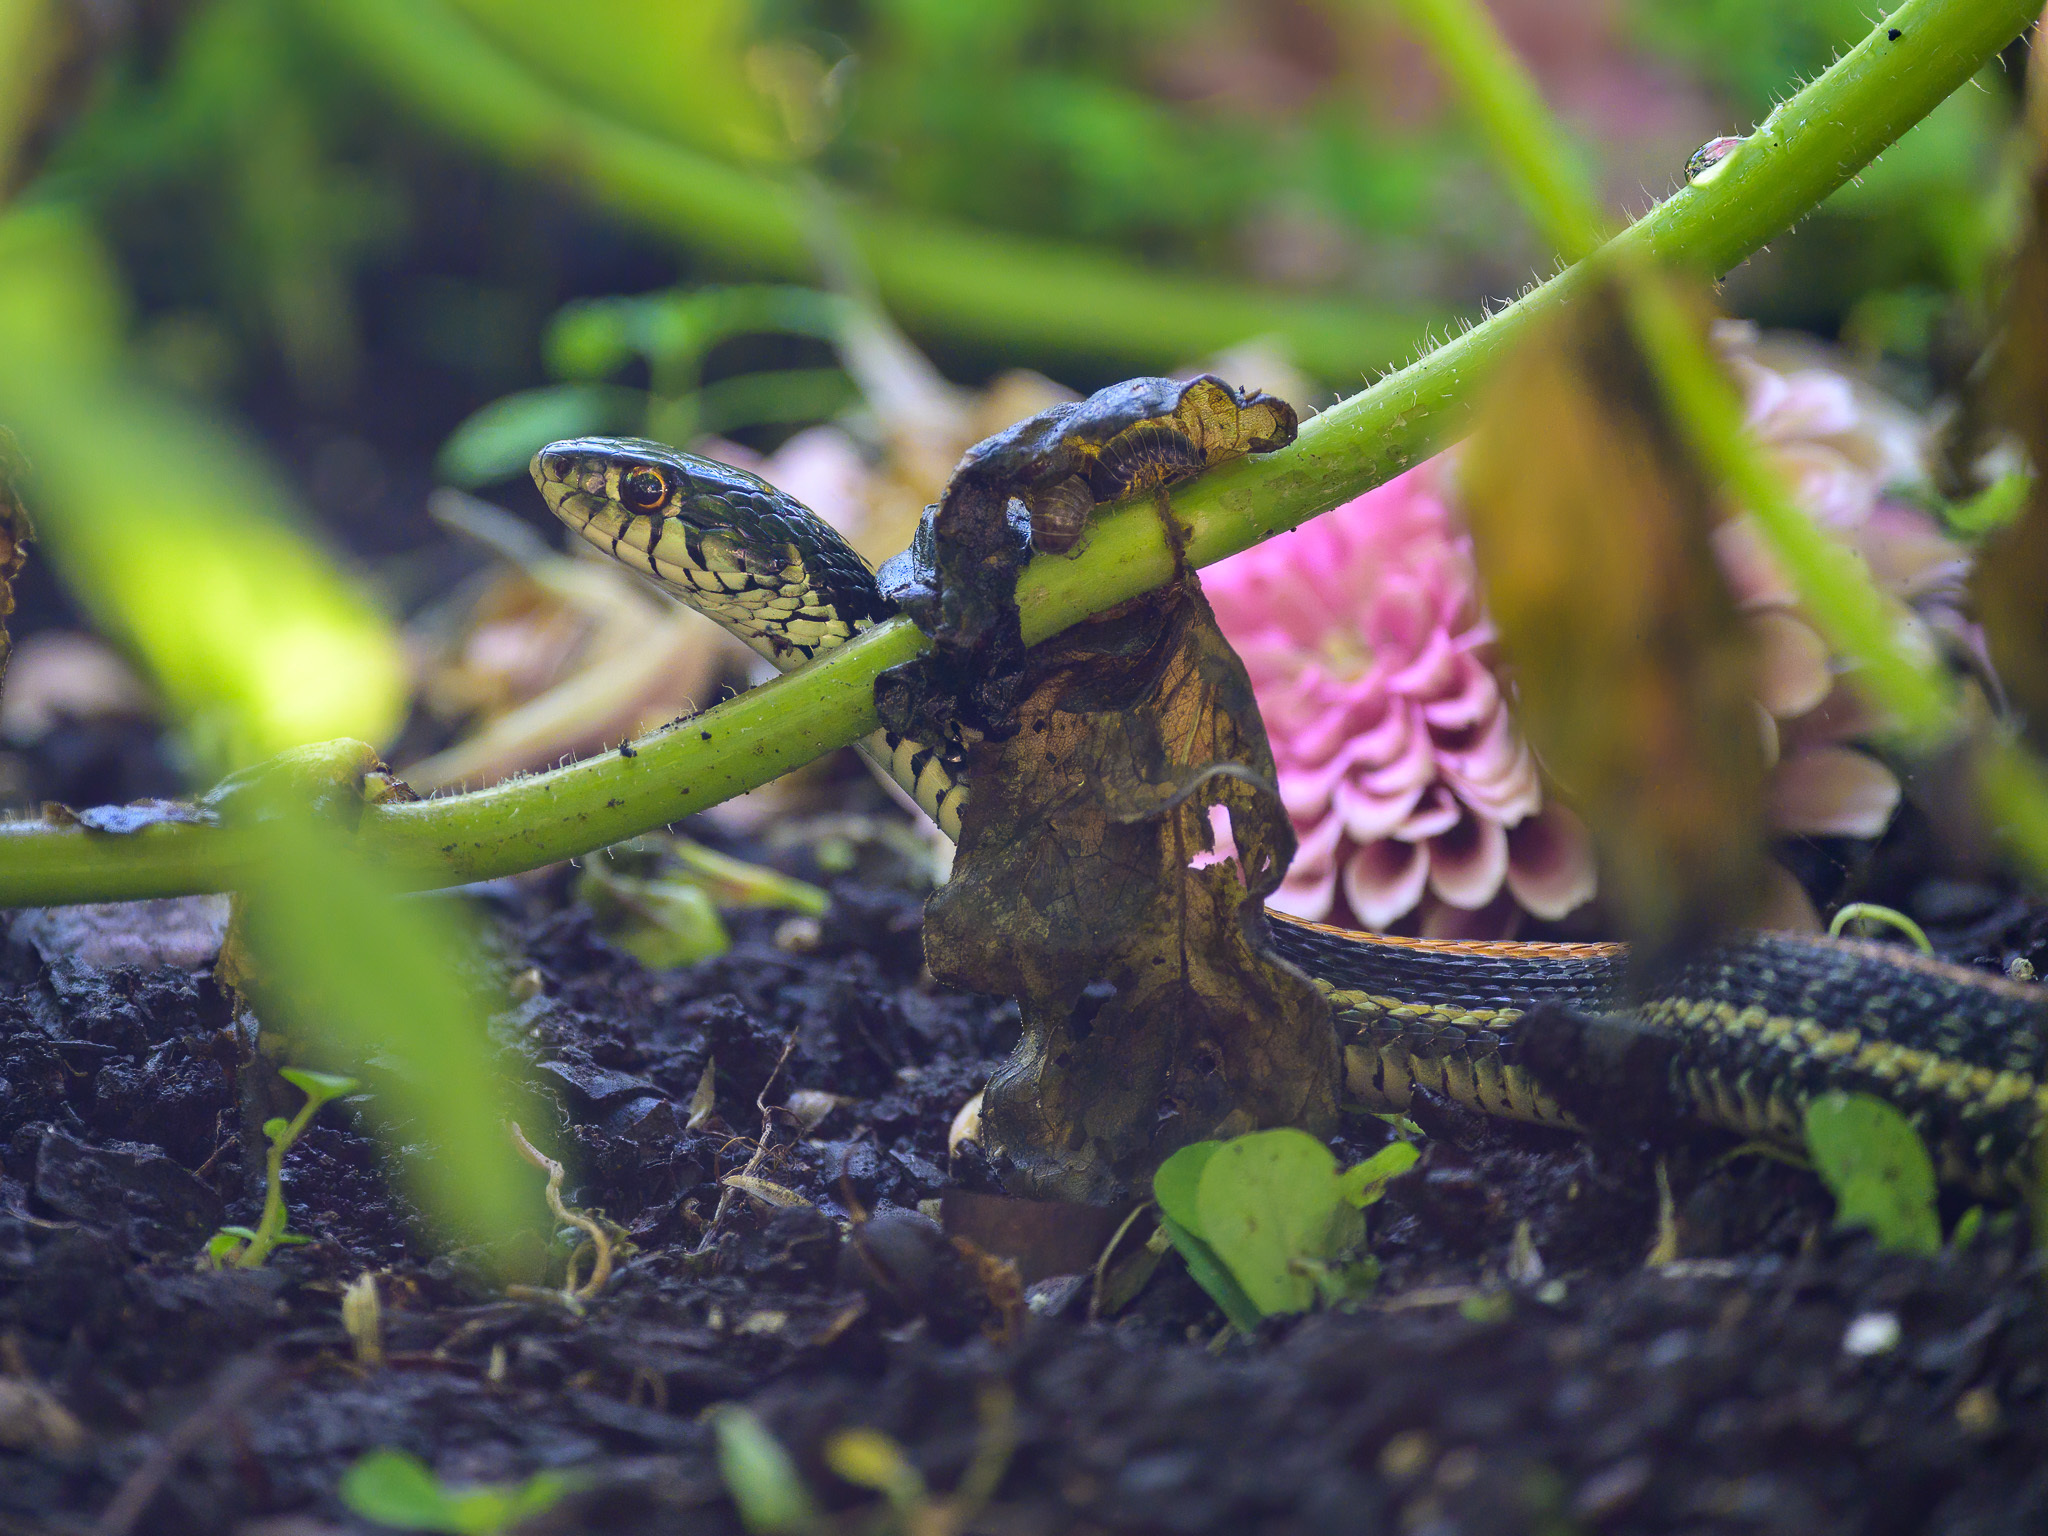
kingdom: Animalia
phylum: Chordata
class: Squamata
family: Colubridae
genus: Thamnophis
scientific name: Thamnophis sirtalis
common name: Common garter snake
